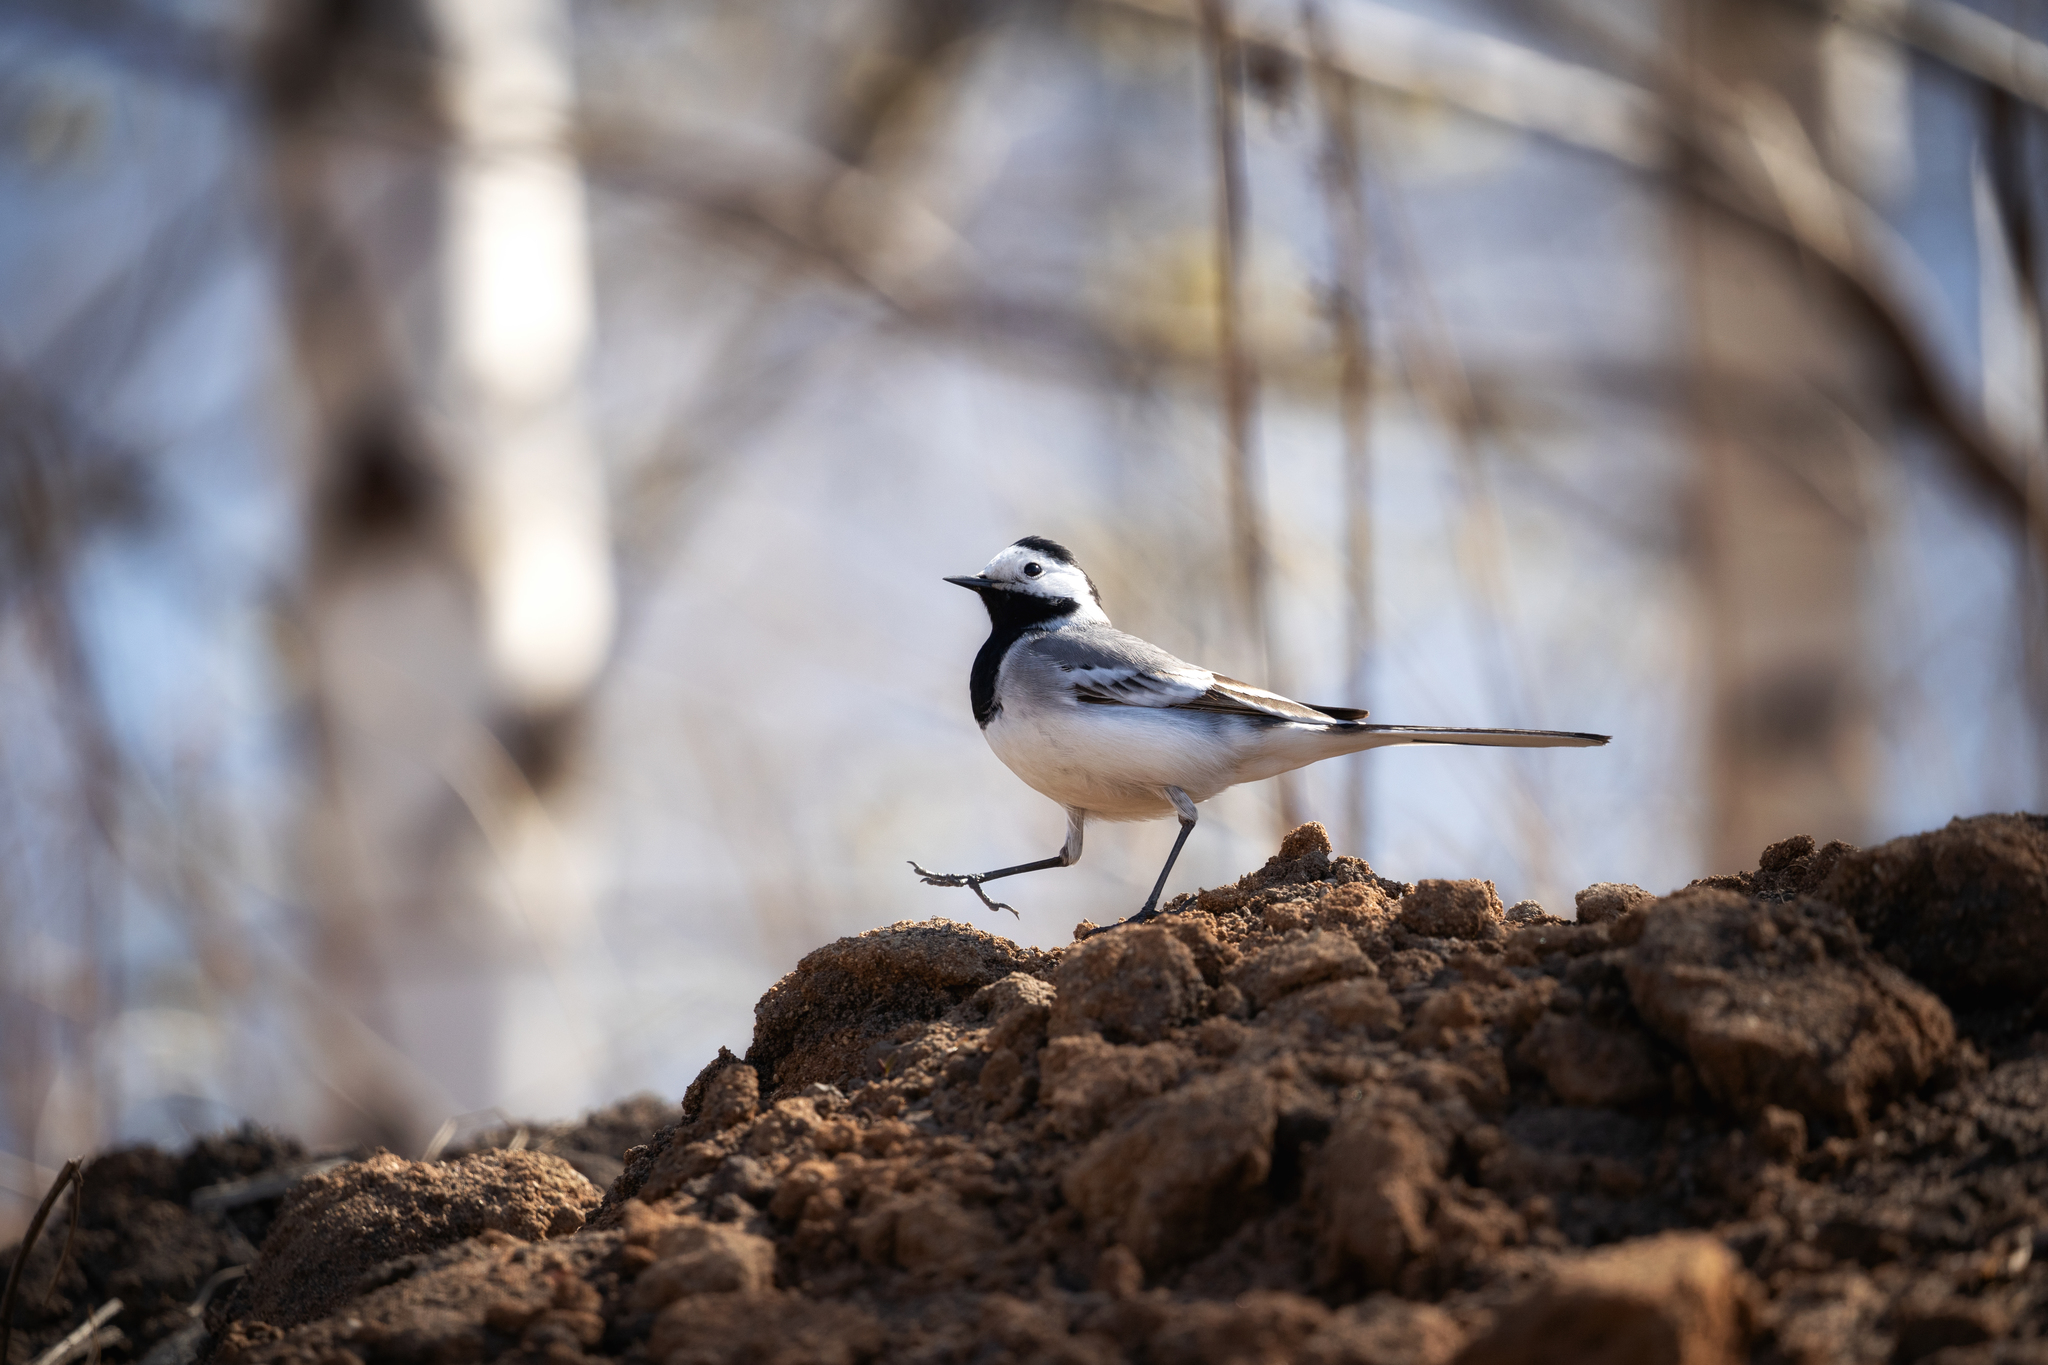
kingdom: Animalia
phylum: Chordata
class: Aves
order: Passeriformes
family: Motacillidae
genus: Motacilla
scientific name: Motacilla alba
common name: White wagtail
